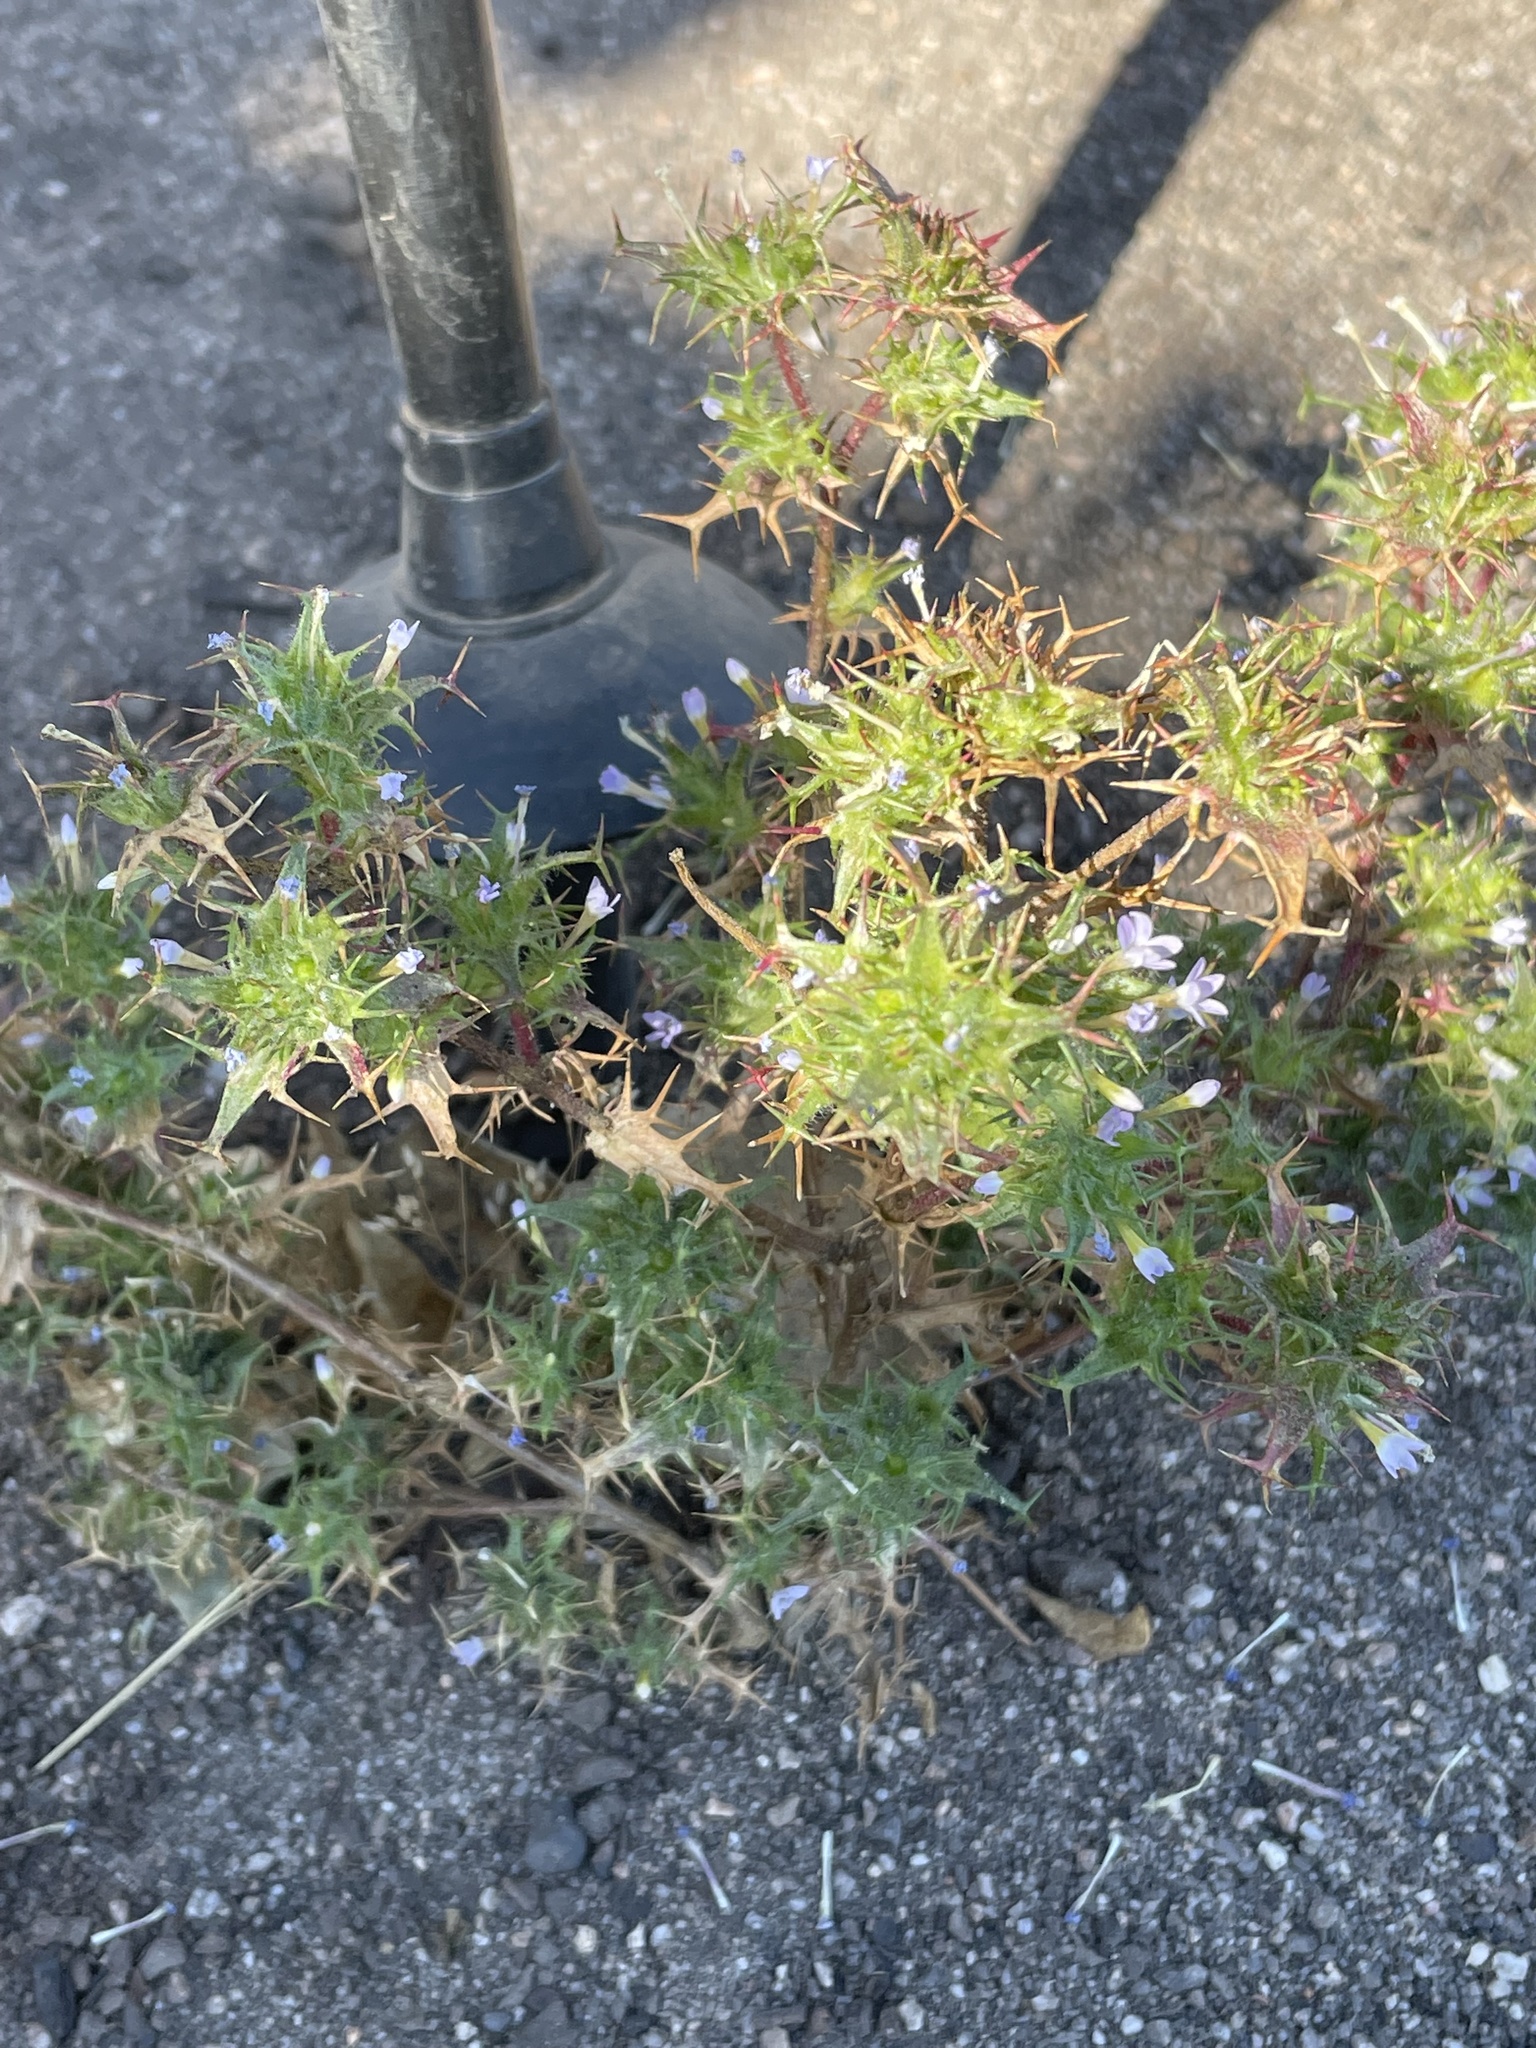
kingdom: Plantae
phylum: Tracheophyta
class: Magnoliopsida
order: Ericales
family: Polemoniaceae
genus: Navarretia
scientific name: Navarretia hamata
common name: Hooked navarretia
